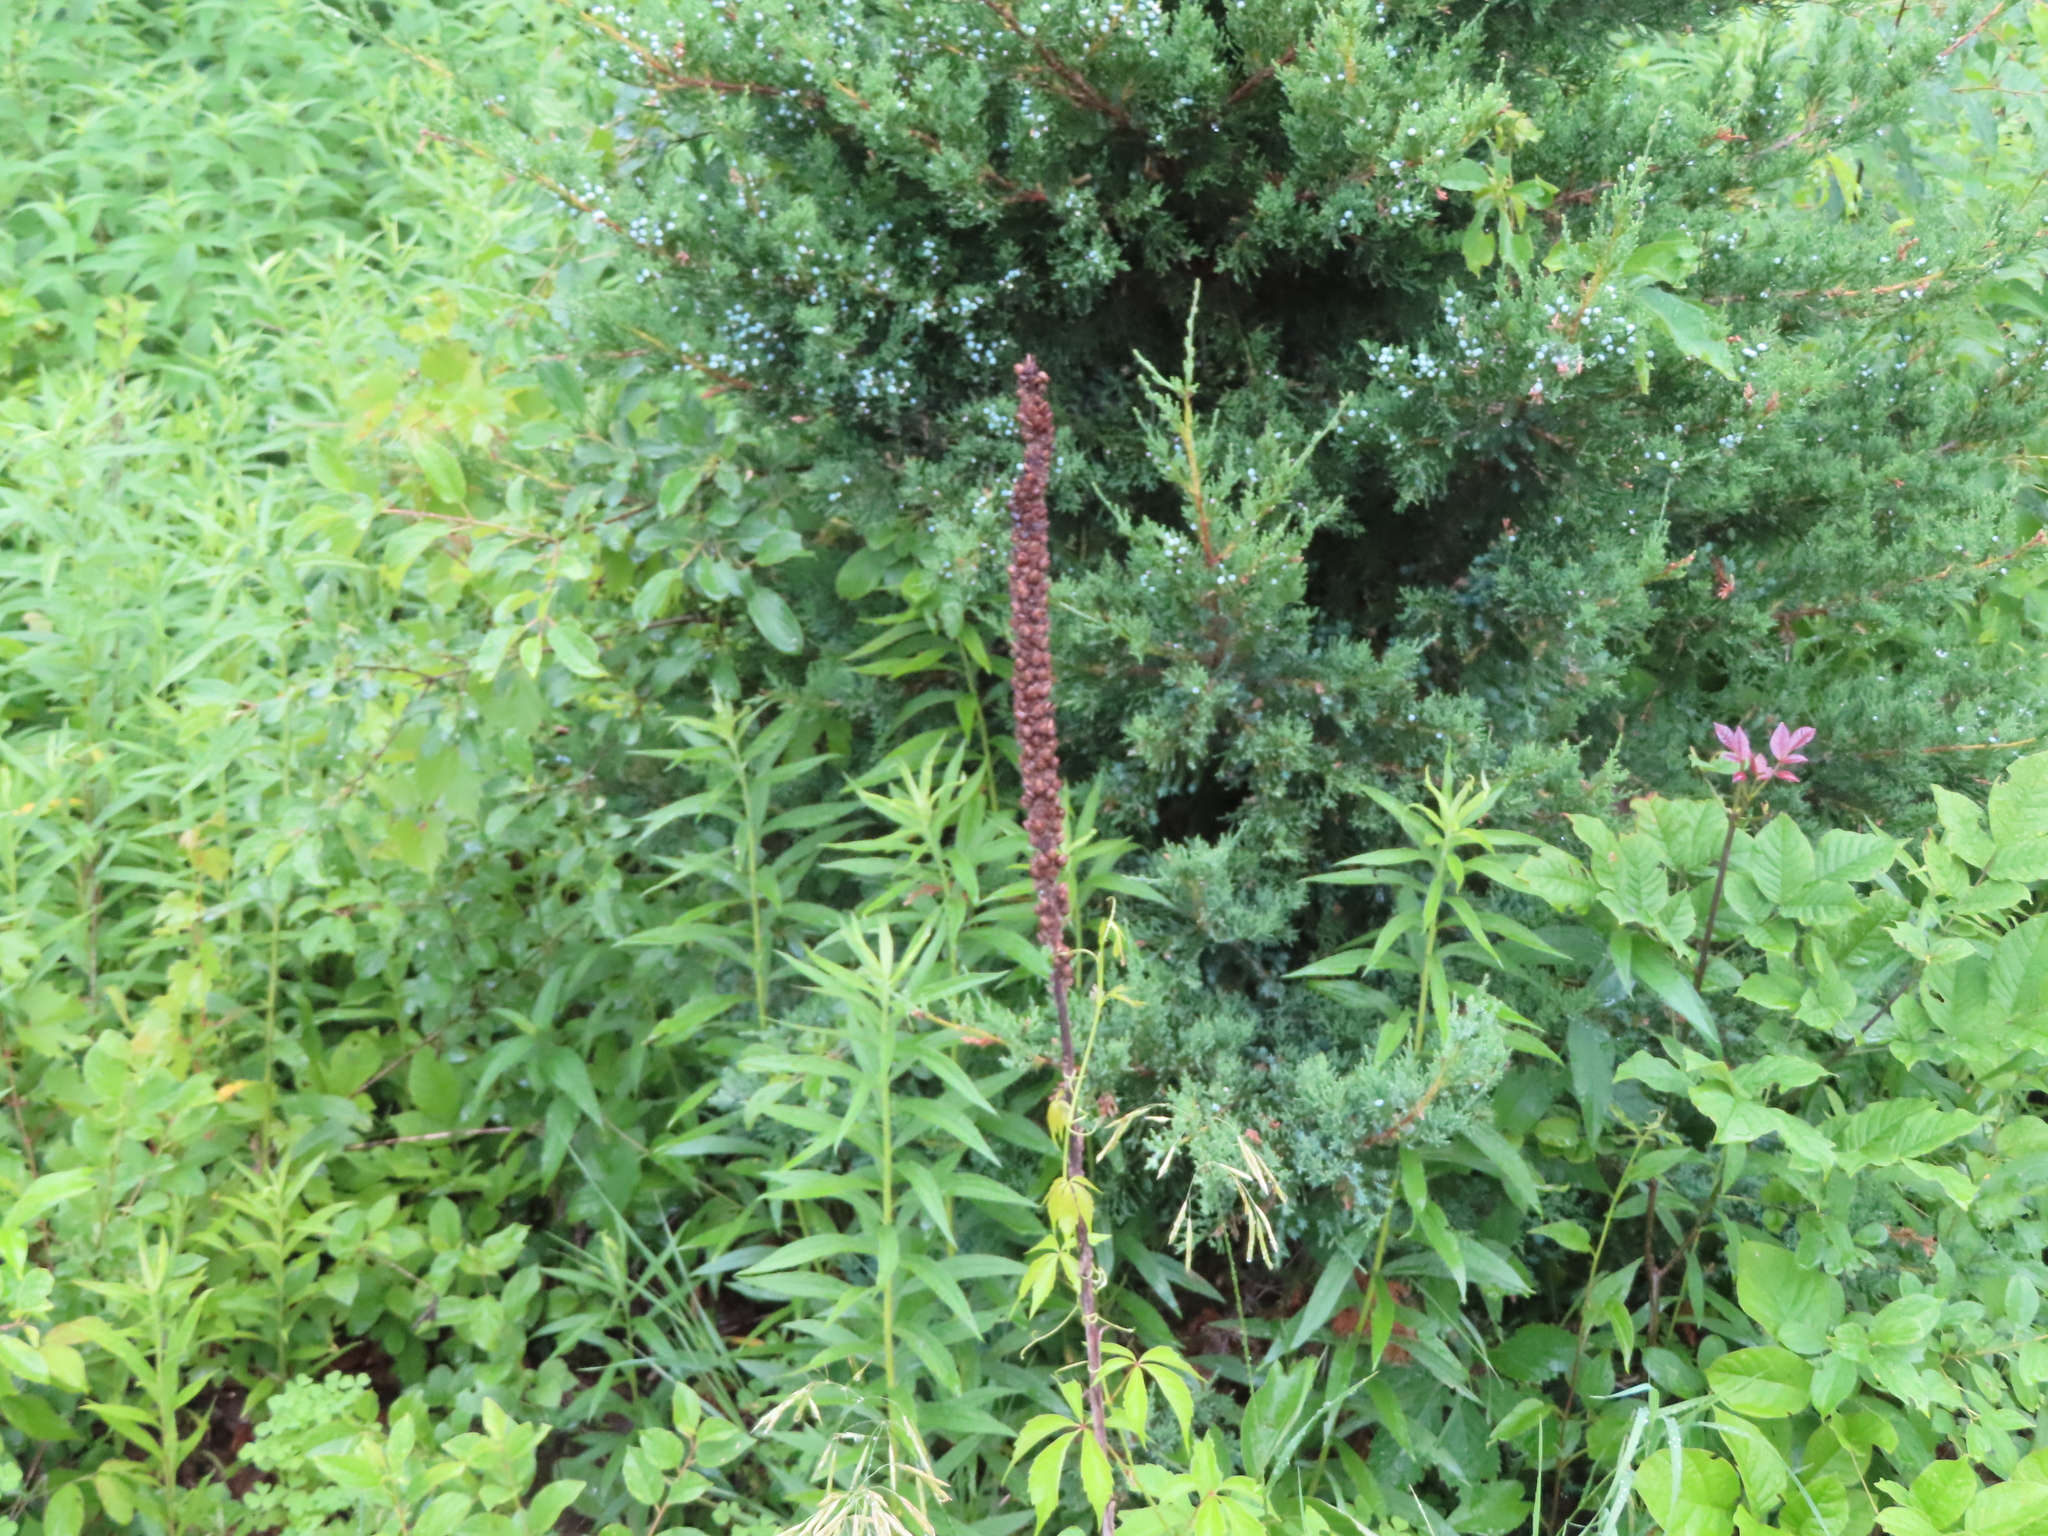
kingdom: Plantae
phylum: Tracheophyta
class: Magnoliopsida
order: Lamiales
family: Scrophulariaceae
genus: Verbascum
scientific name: Verbascum thapsus
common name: Common mullein
